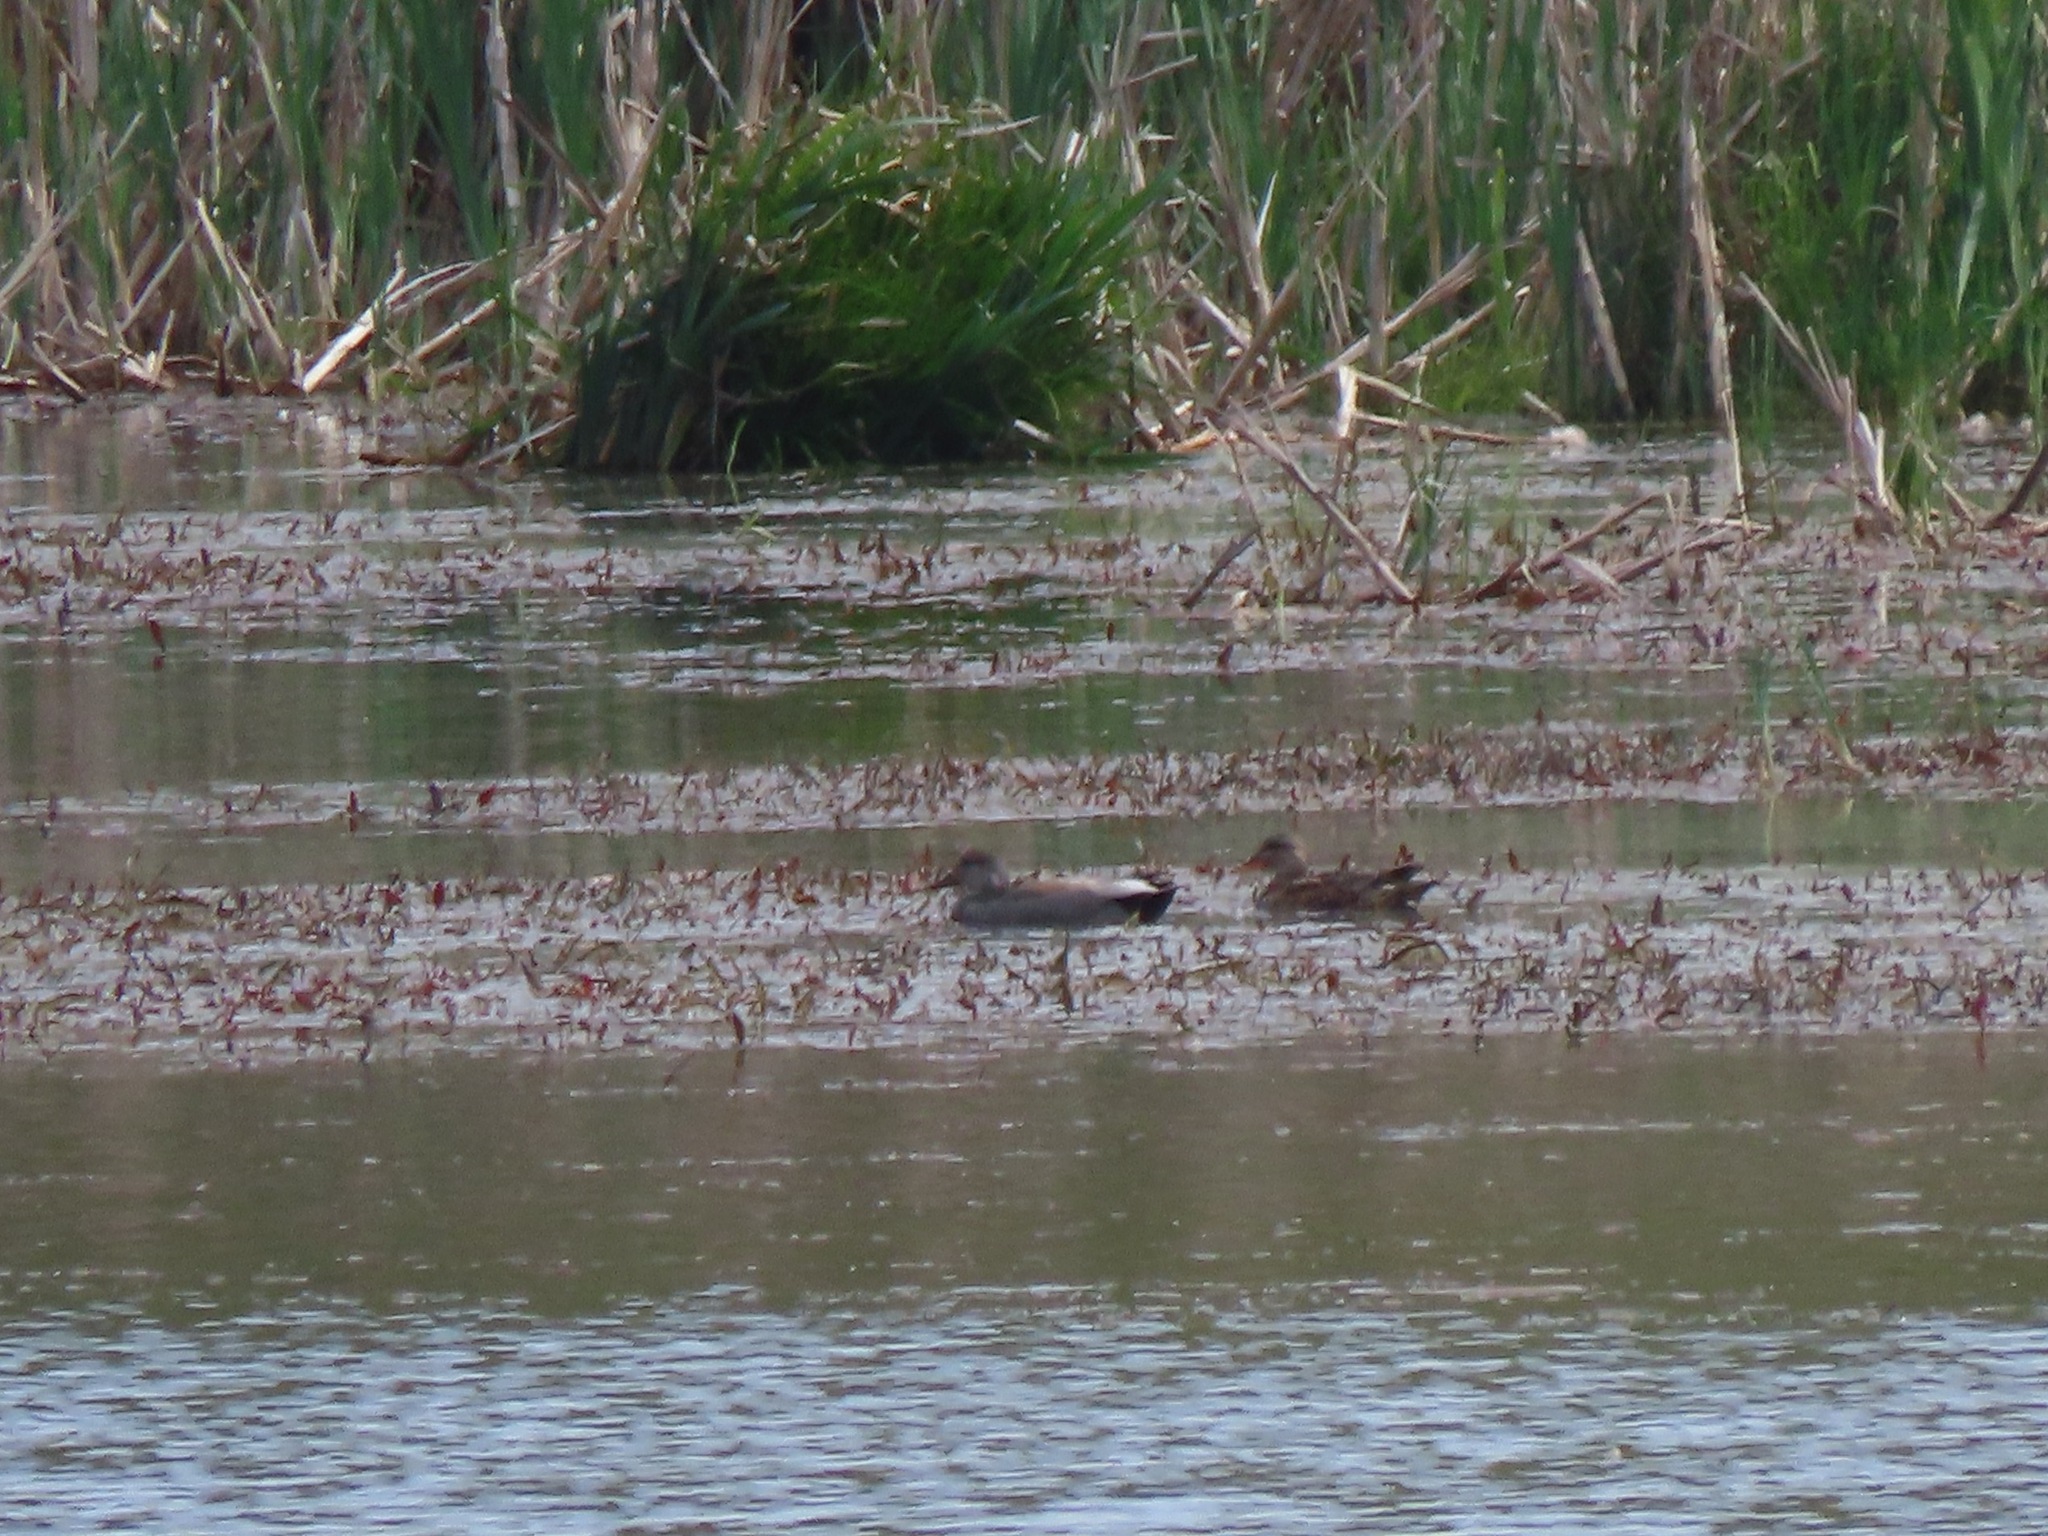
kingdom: Animalia
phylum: Chordata
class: Aves
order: Anseriformes
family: Anatidae
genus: Mareca
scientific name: Mareca strepera
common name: Gadwall
